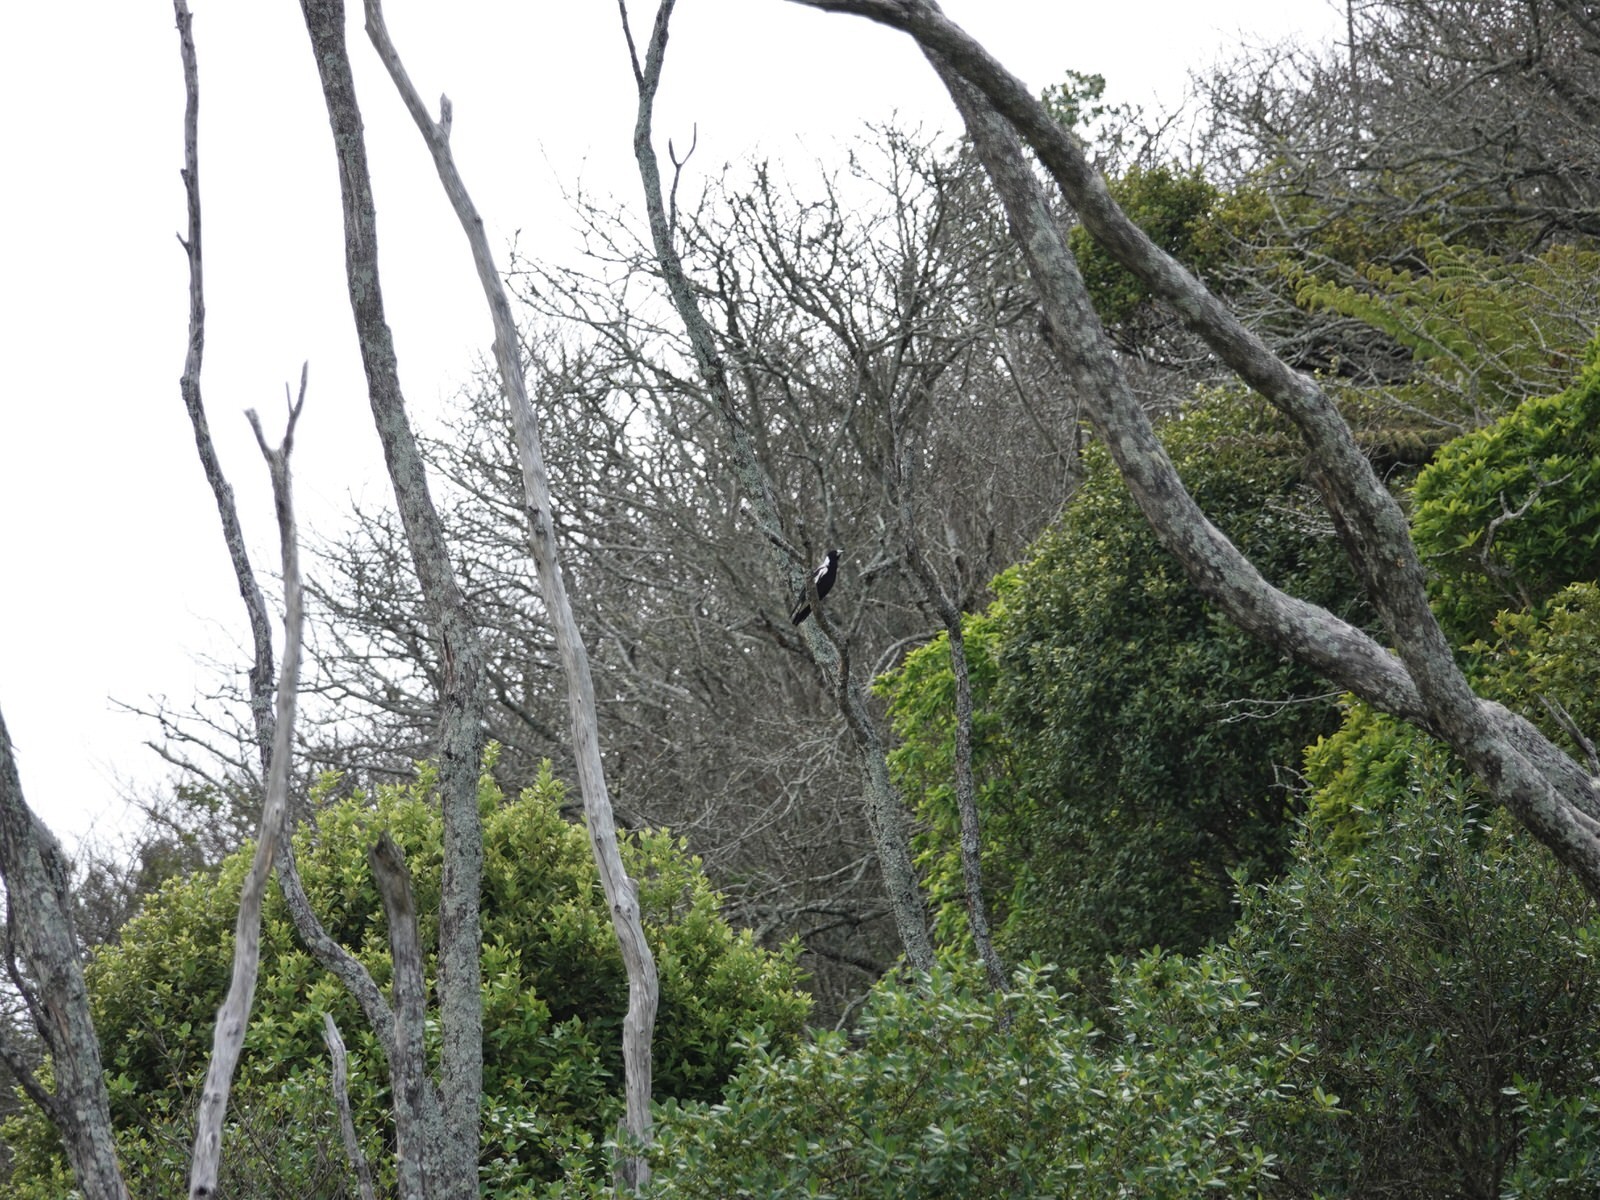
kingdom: Animalia
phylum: Chordata
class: Aves
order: Passeriformes
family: Cracticidae
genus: Gymnorhina
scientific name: Gymnorhina tibicen
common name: Australian magpie
